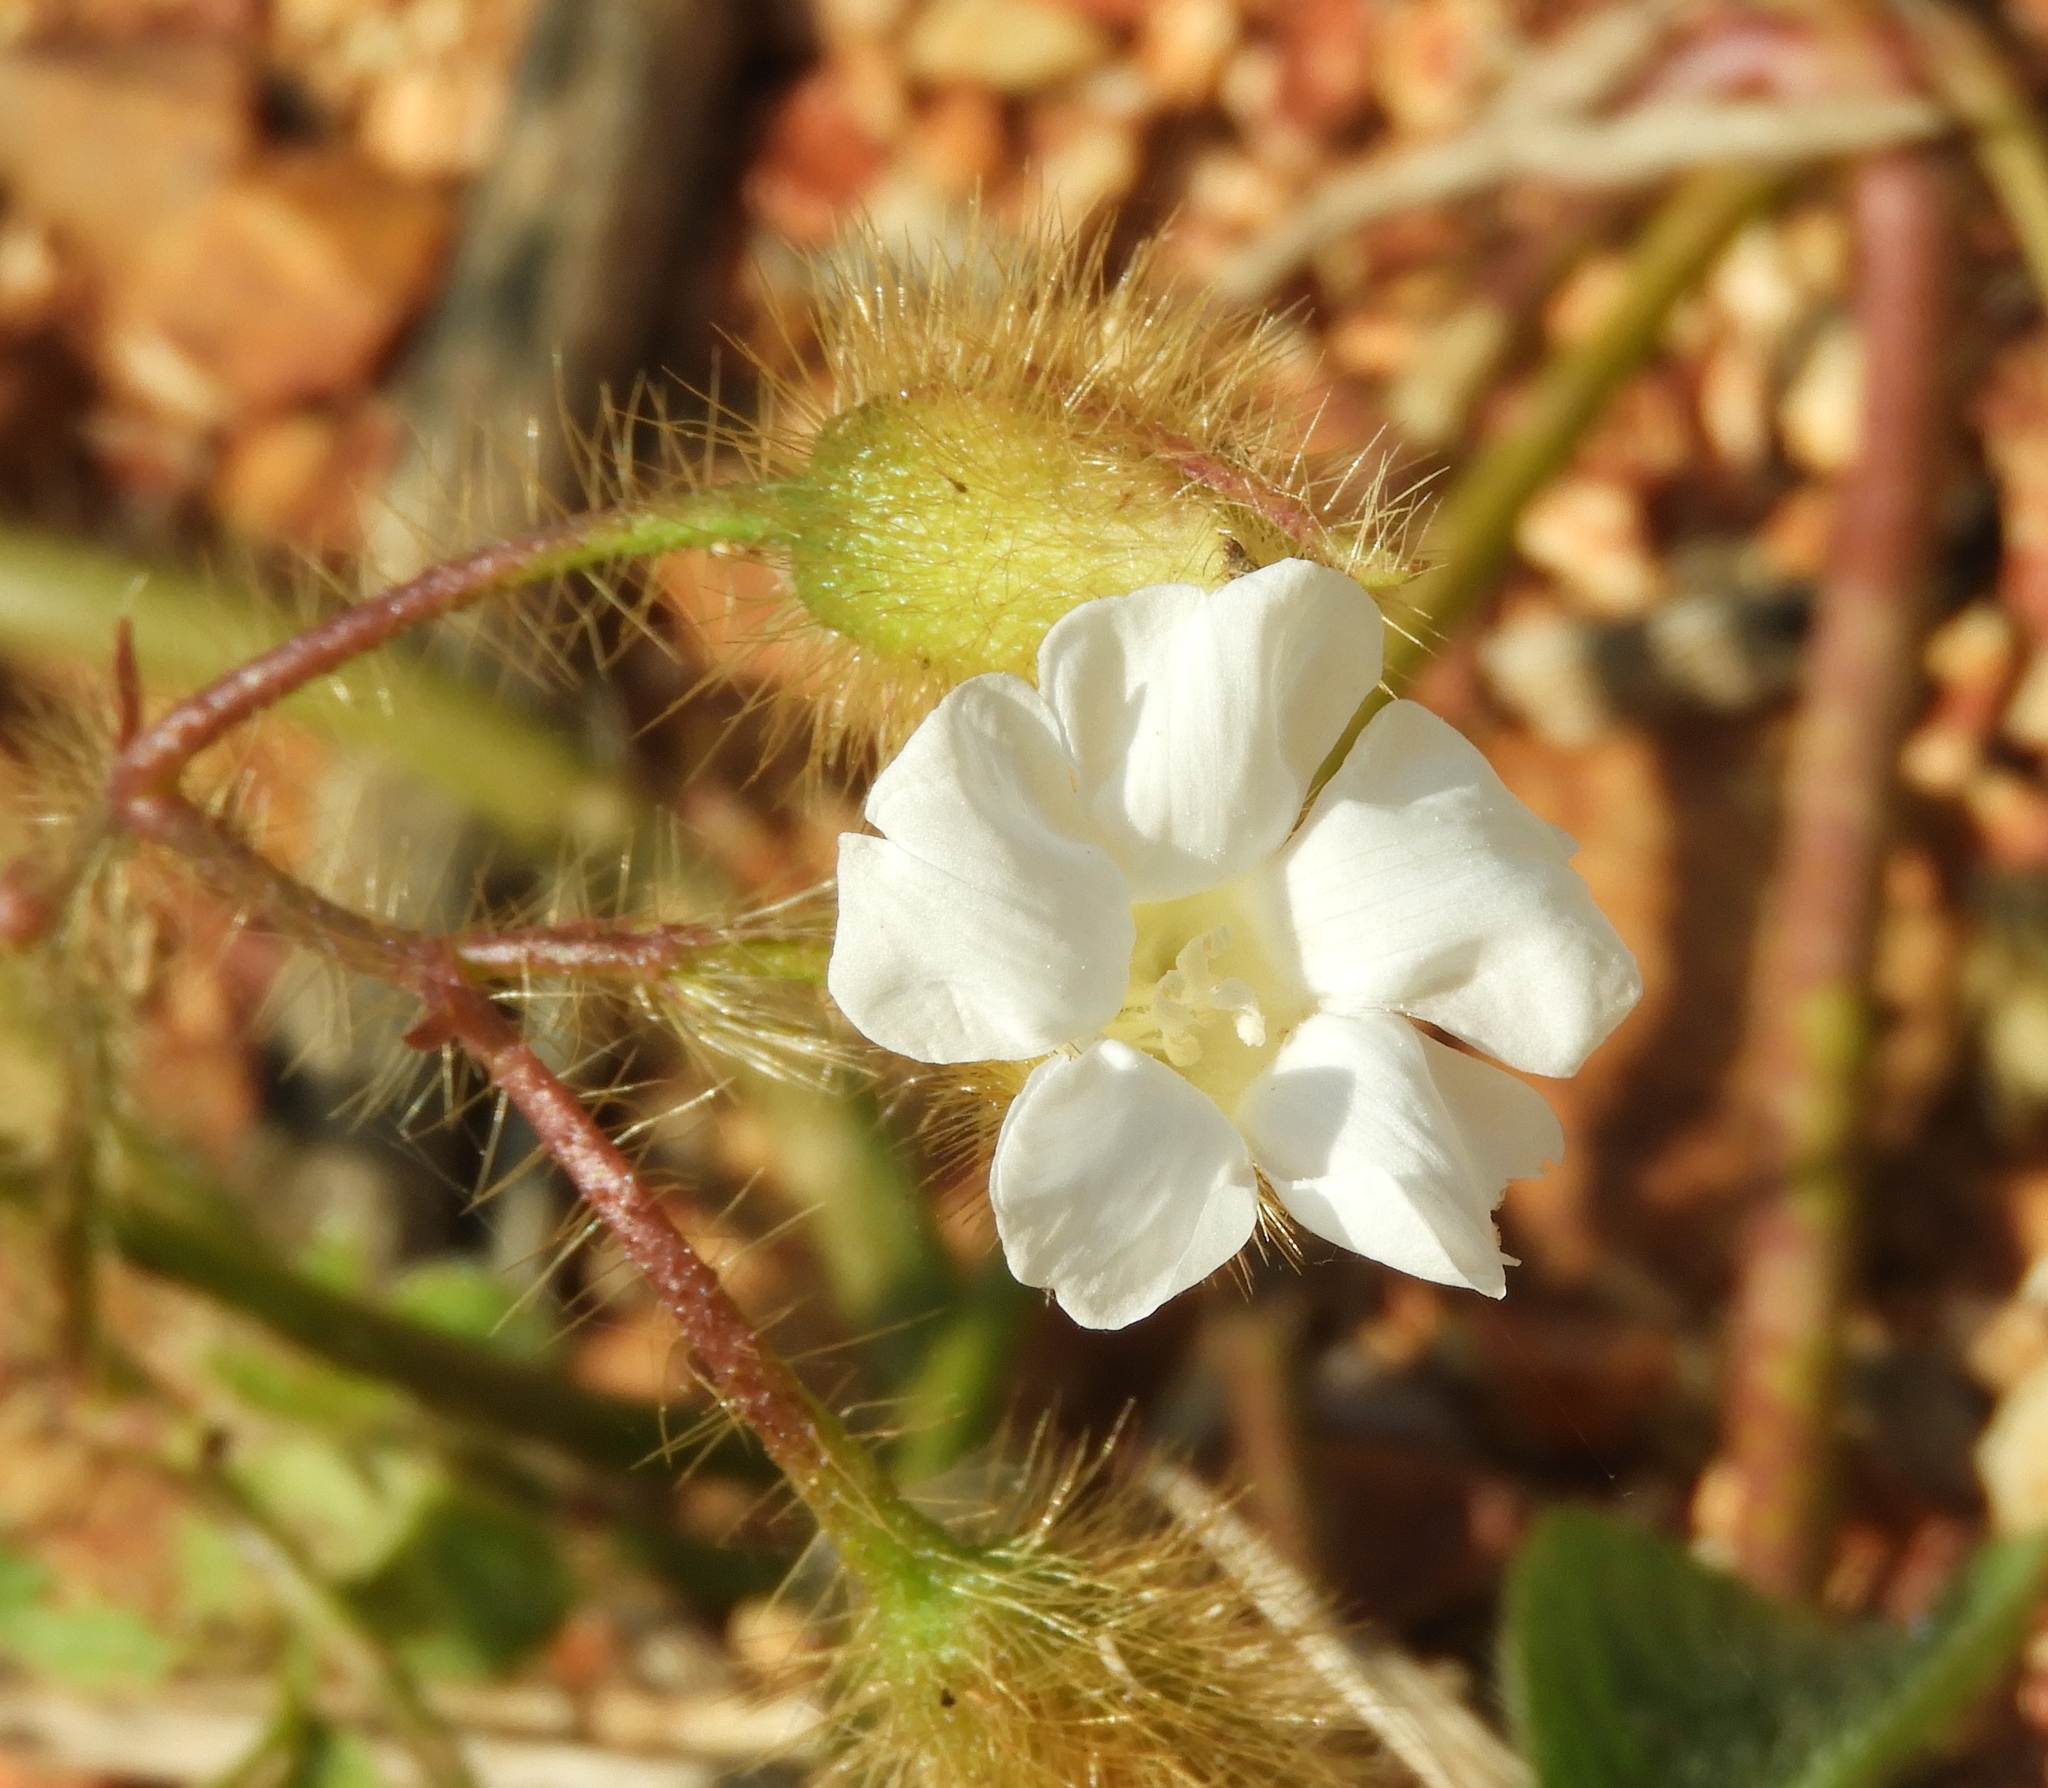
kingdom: Plantae
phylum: Tracheophyta
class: Magnoliopsida
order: Solanales
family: Convolvulaceae
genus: Distimake
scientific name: Distimake aegyptius
